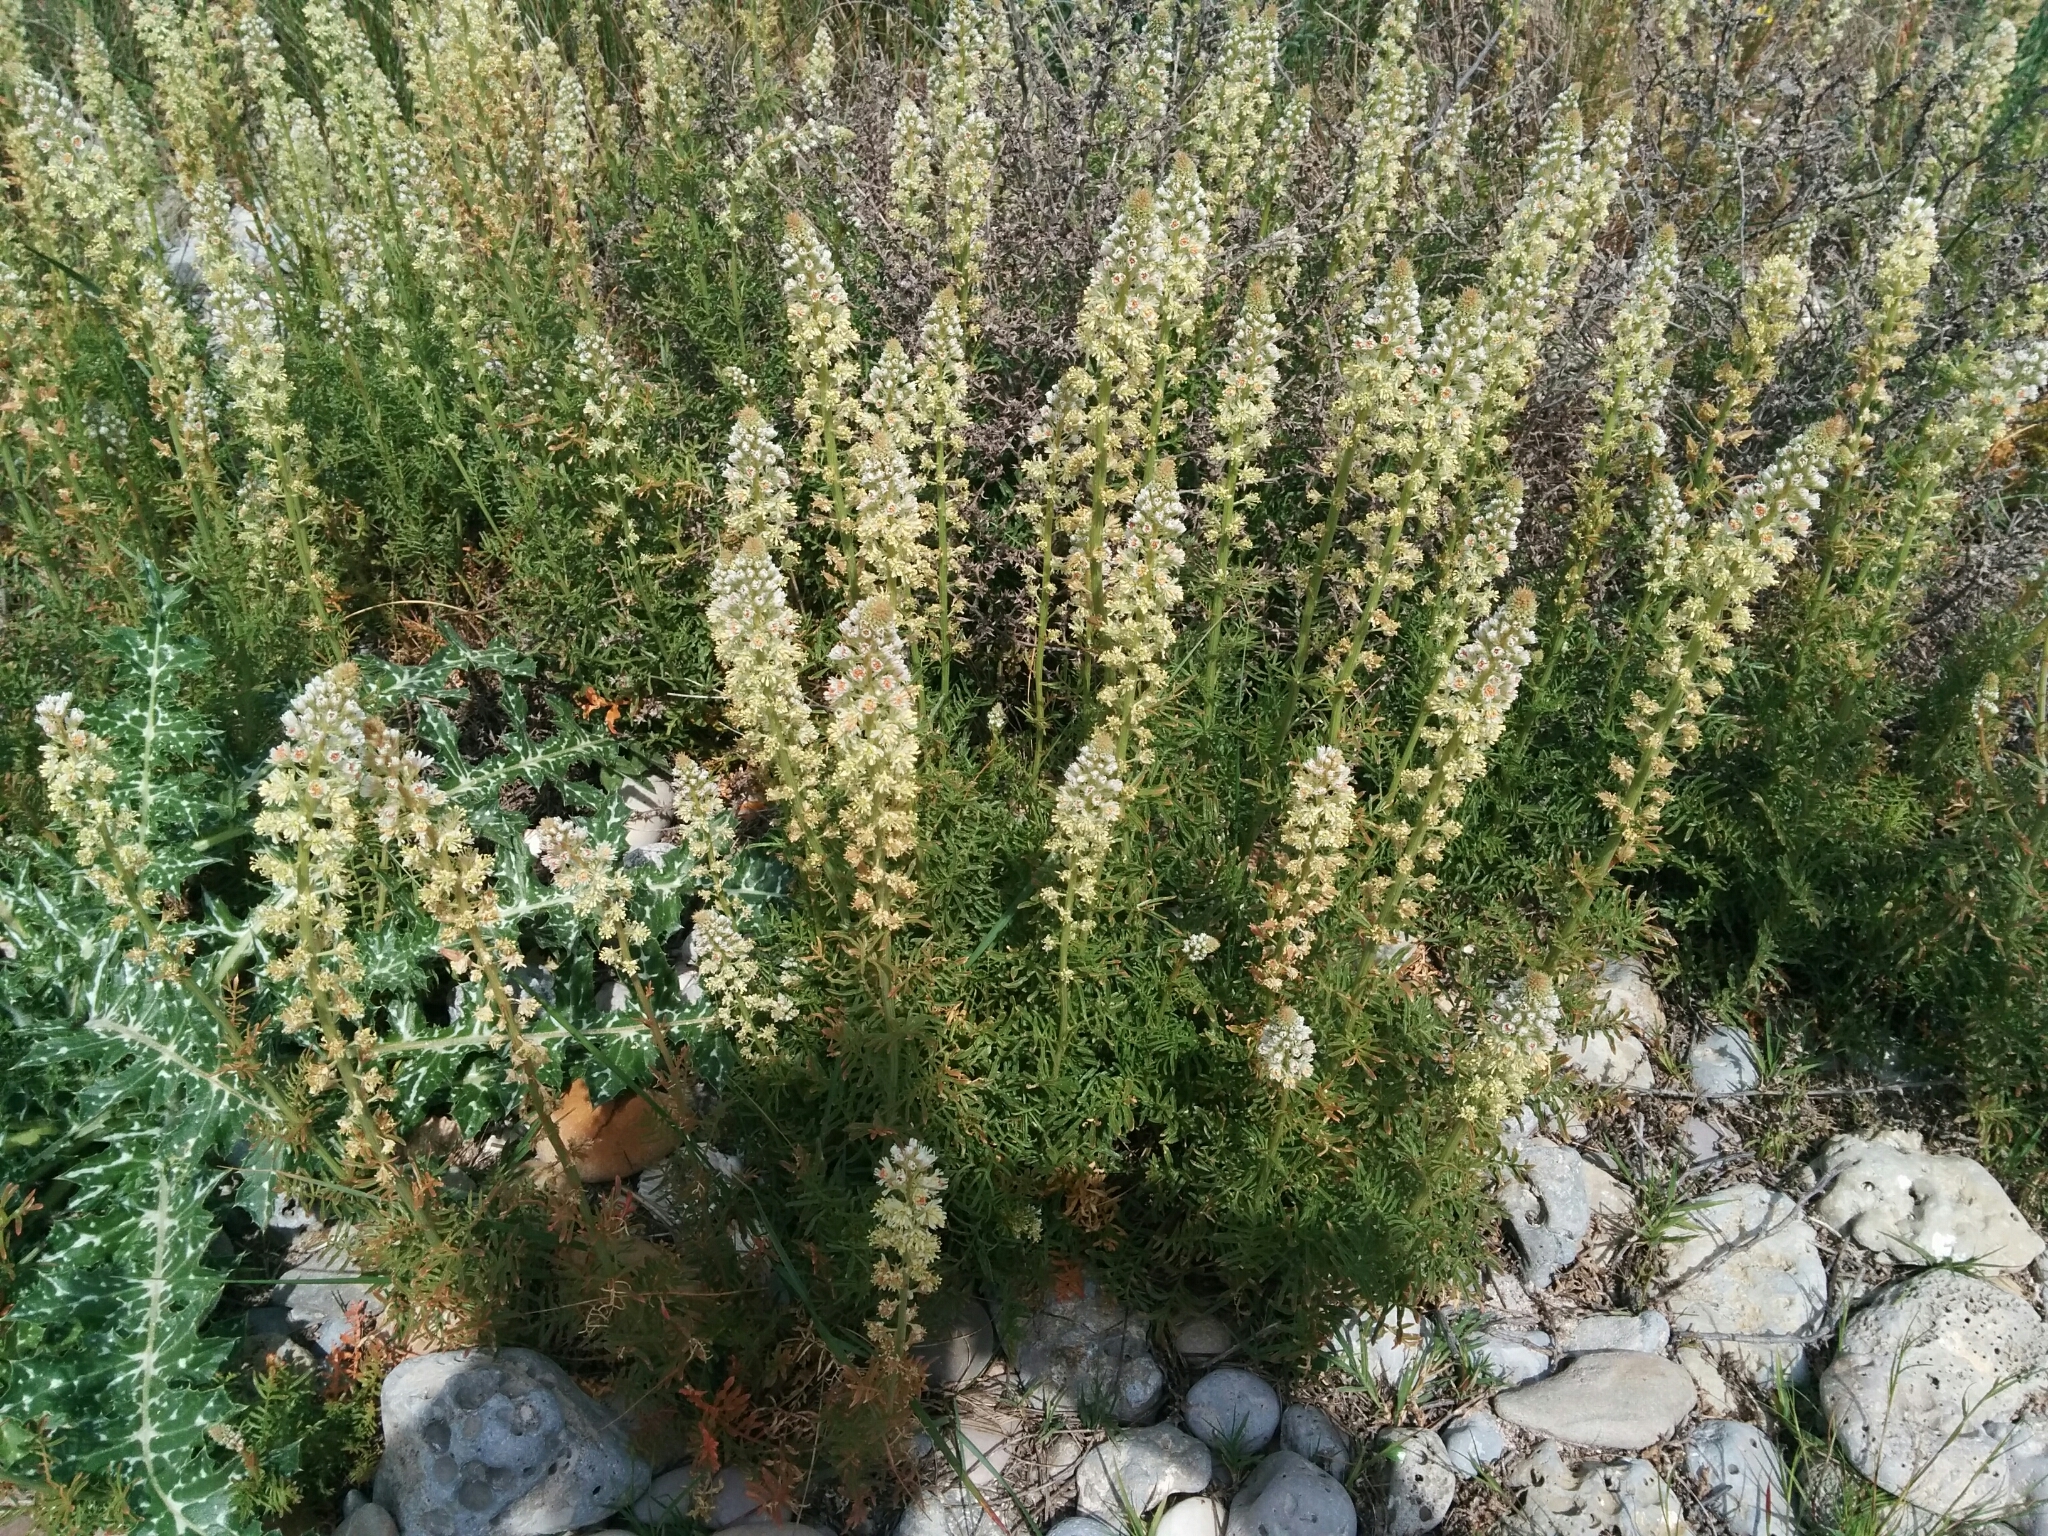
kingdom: Plantae
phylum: Tracheophyta
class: Magnoliopsida
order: Brassicales
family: Resedaceae
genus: Reseda
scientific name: Reseda alba
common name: White mignonette
